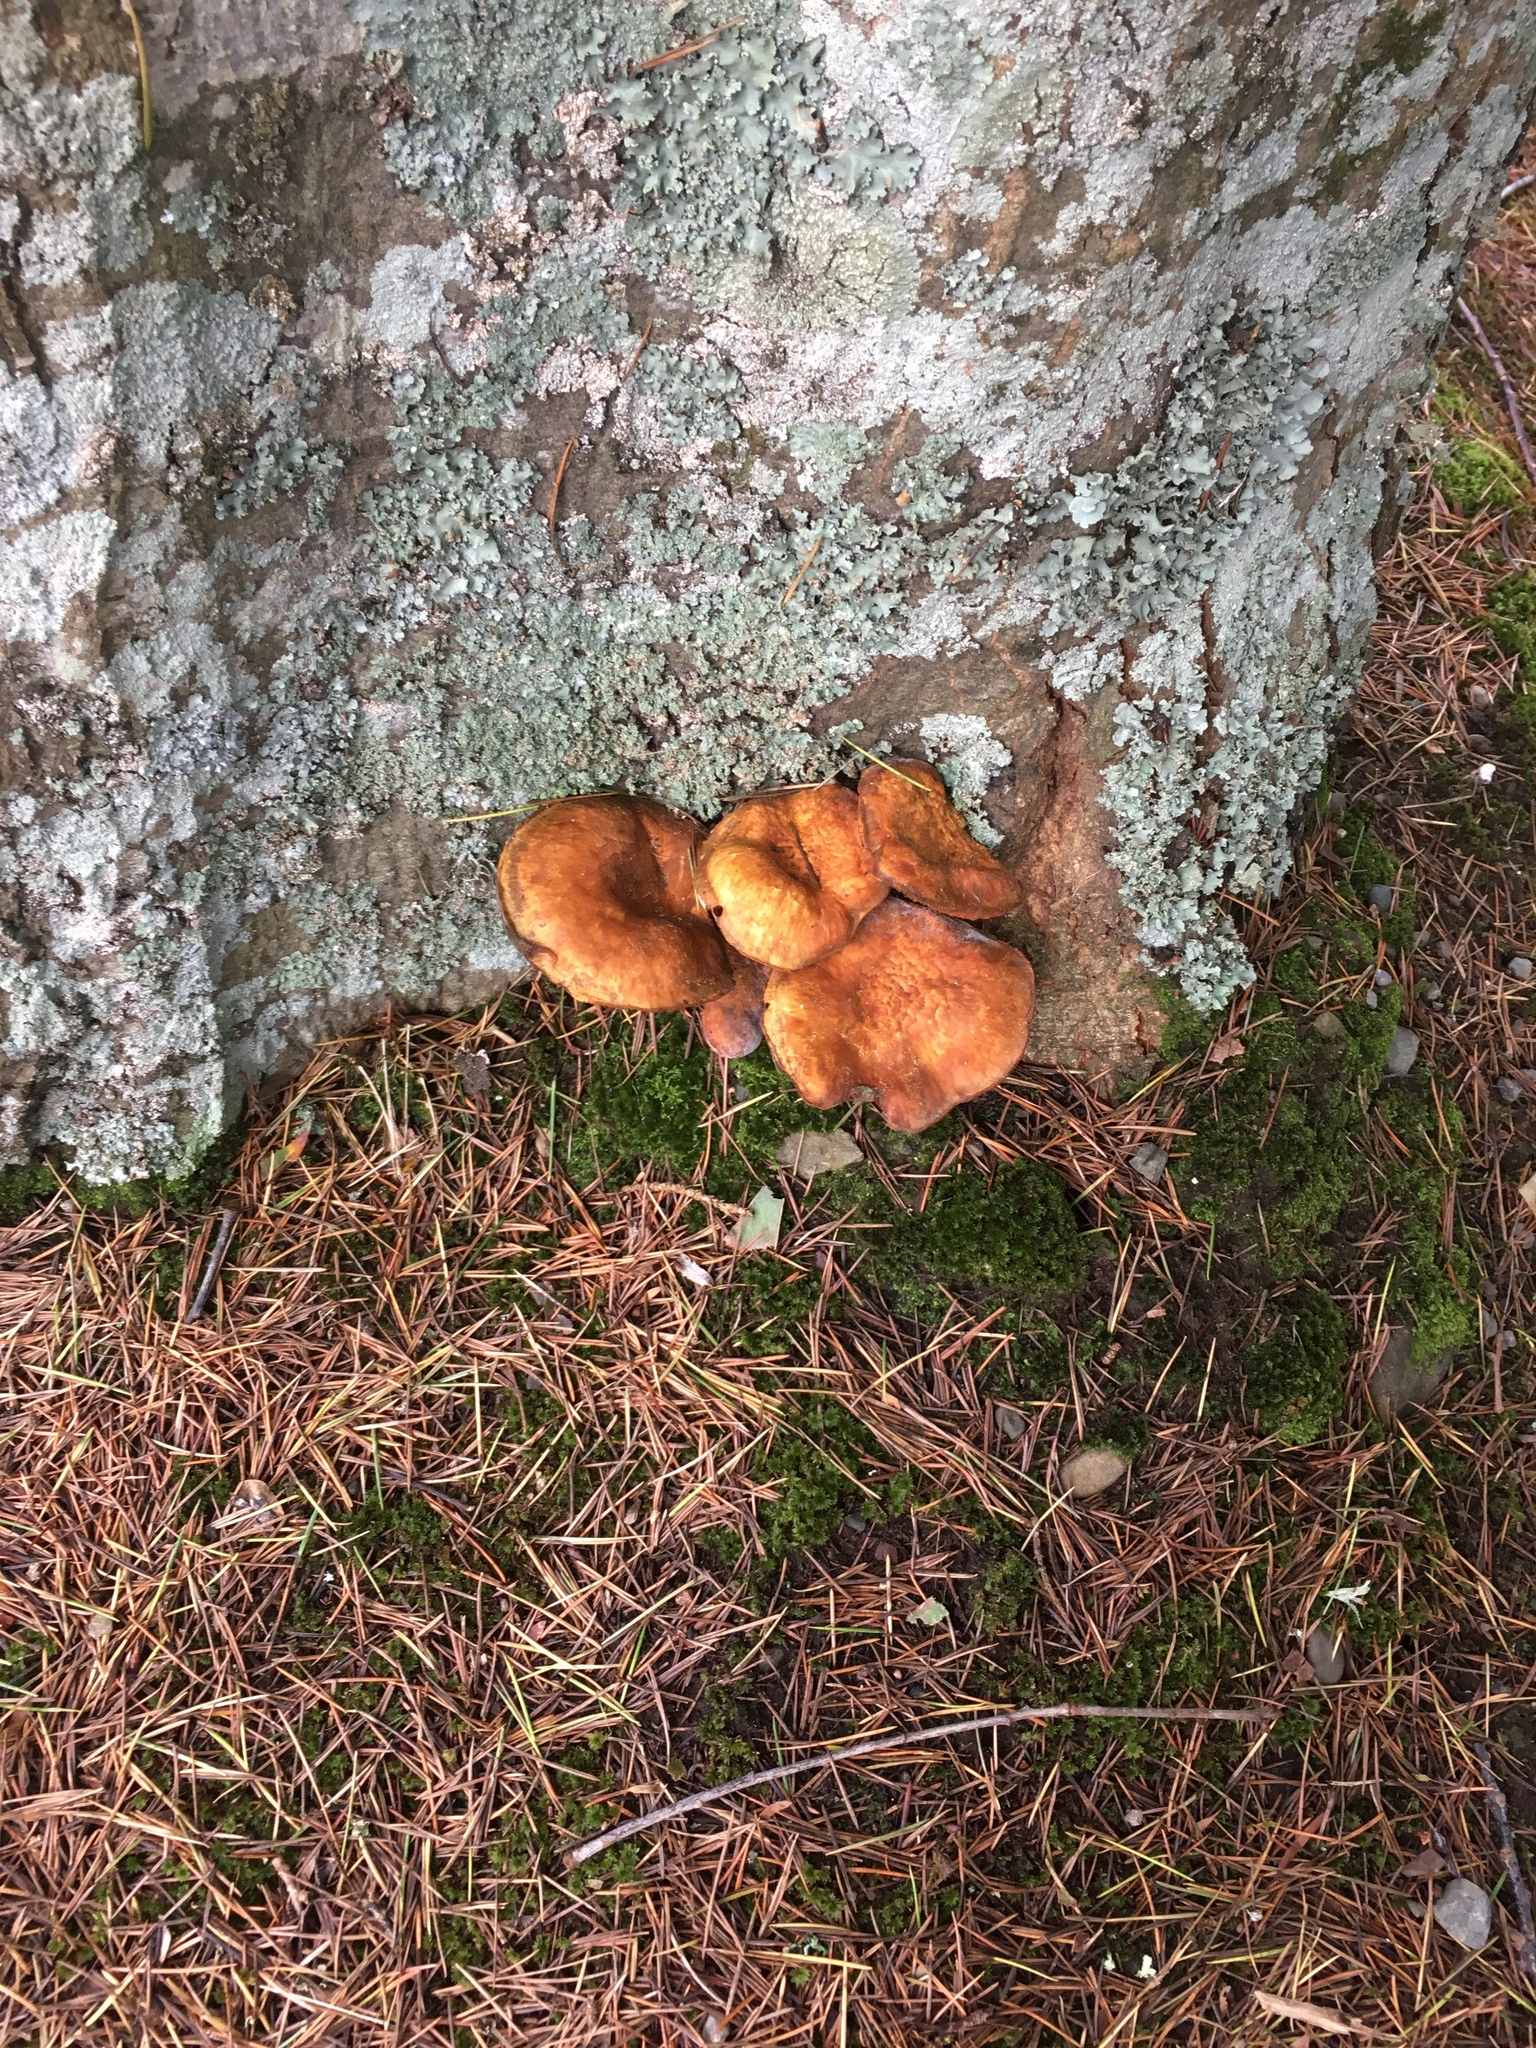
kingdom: Fungi
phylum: Basidiomycota
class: Agaricomycetes
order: Agaricales
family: Hymenogastraceae
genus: Gymnopilus
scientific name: Gymnopilus junonius
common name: Spectacular rustgill
